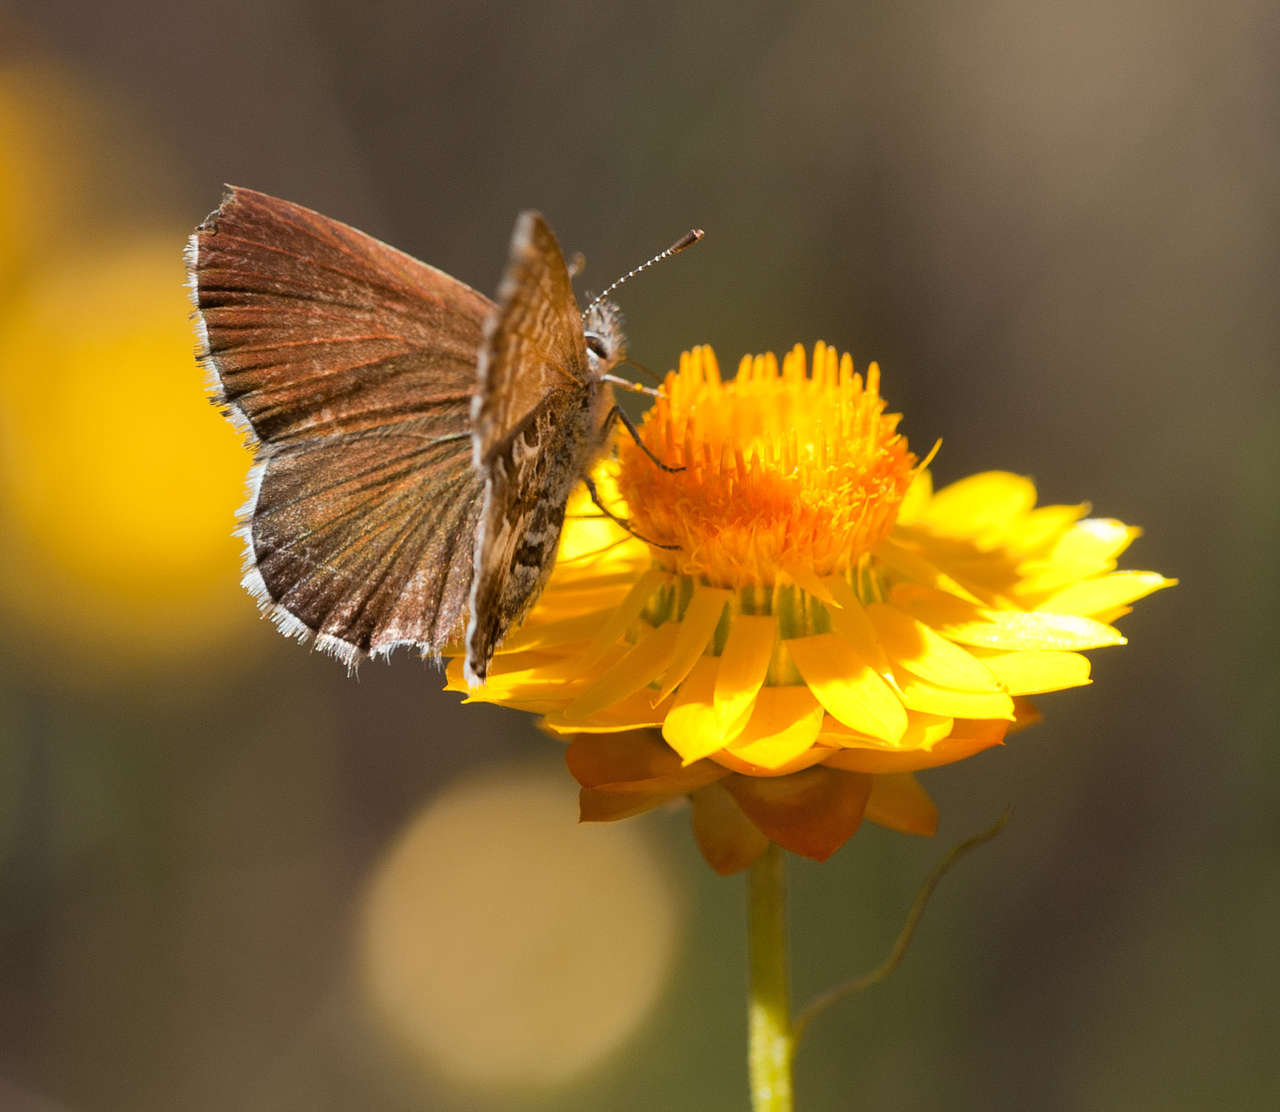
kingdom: Animalia
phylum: Arthropoda
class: Insecta
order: Lepidoptera
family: Lycaenidae
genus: Neolucia
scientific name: Neolucia agricola
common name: Fringed blue
